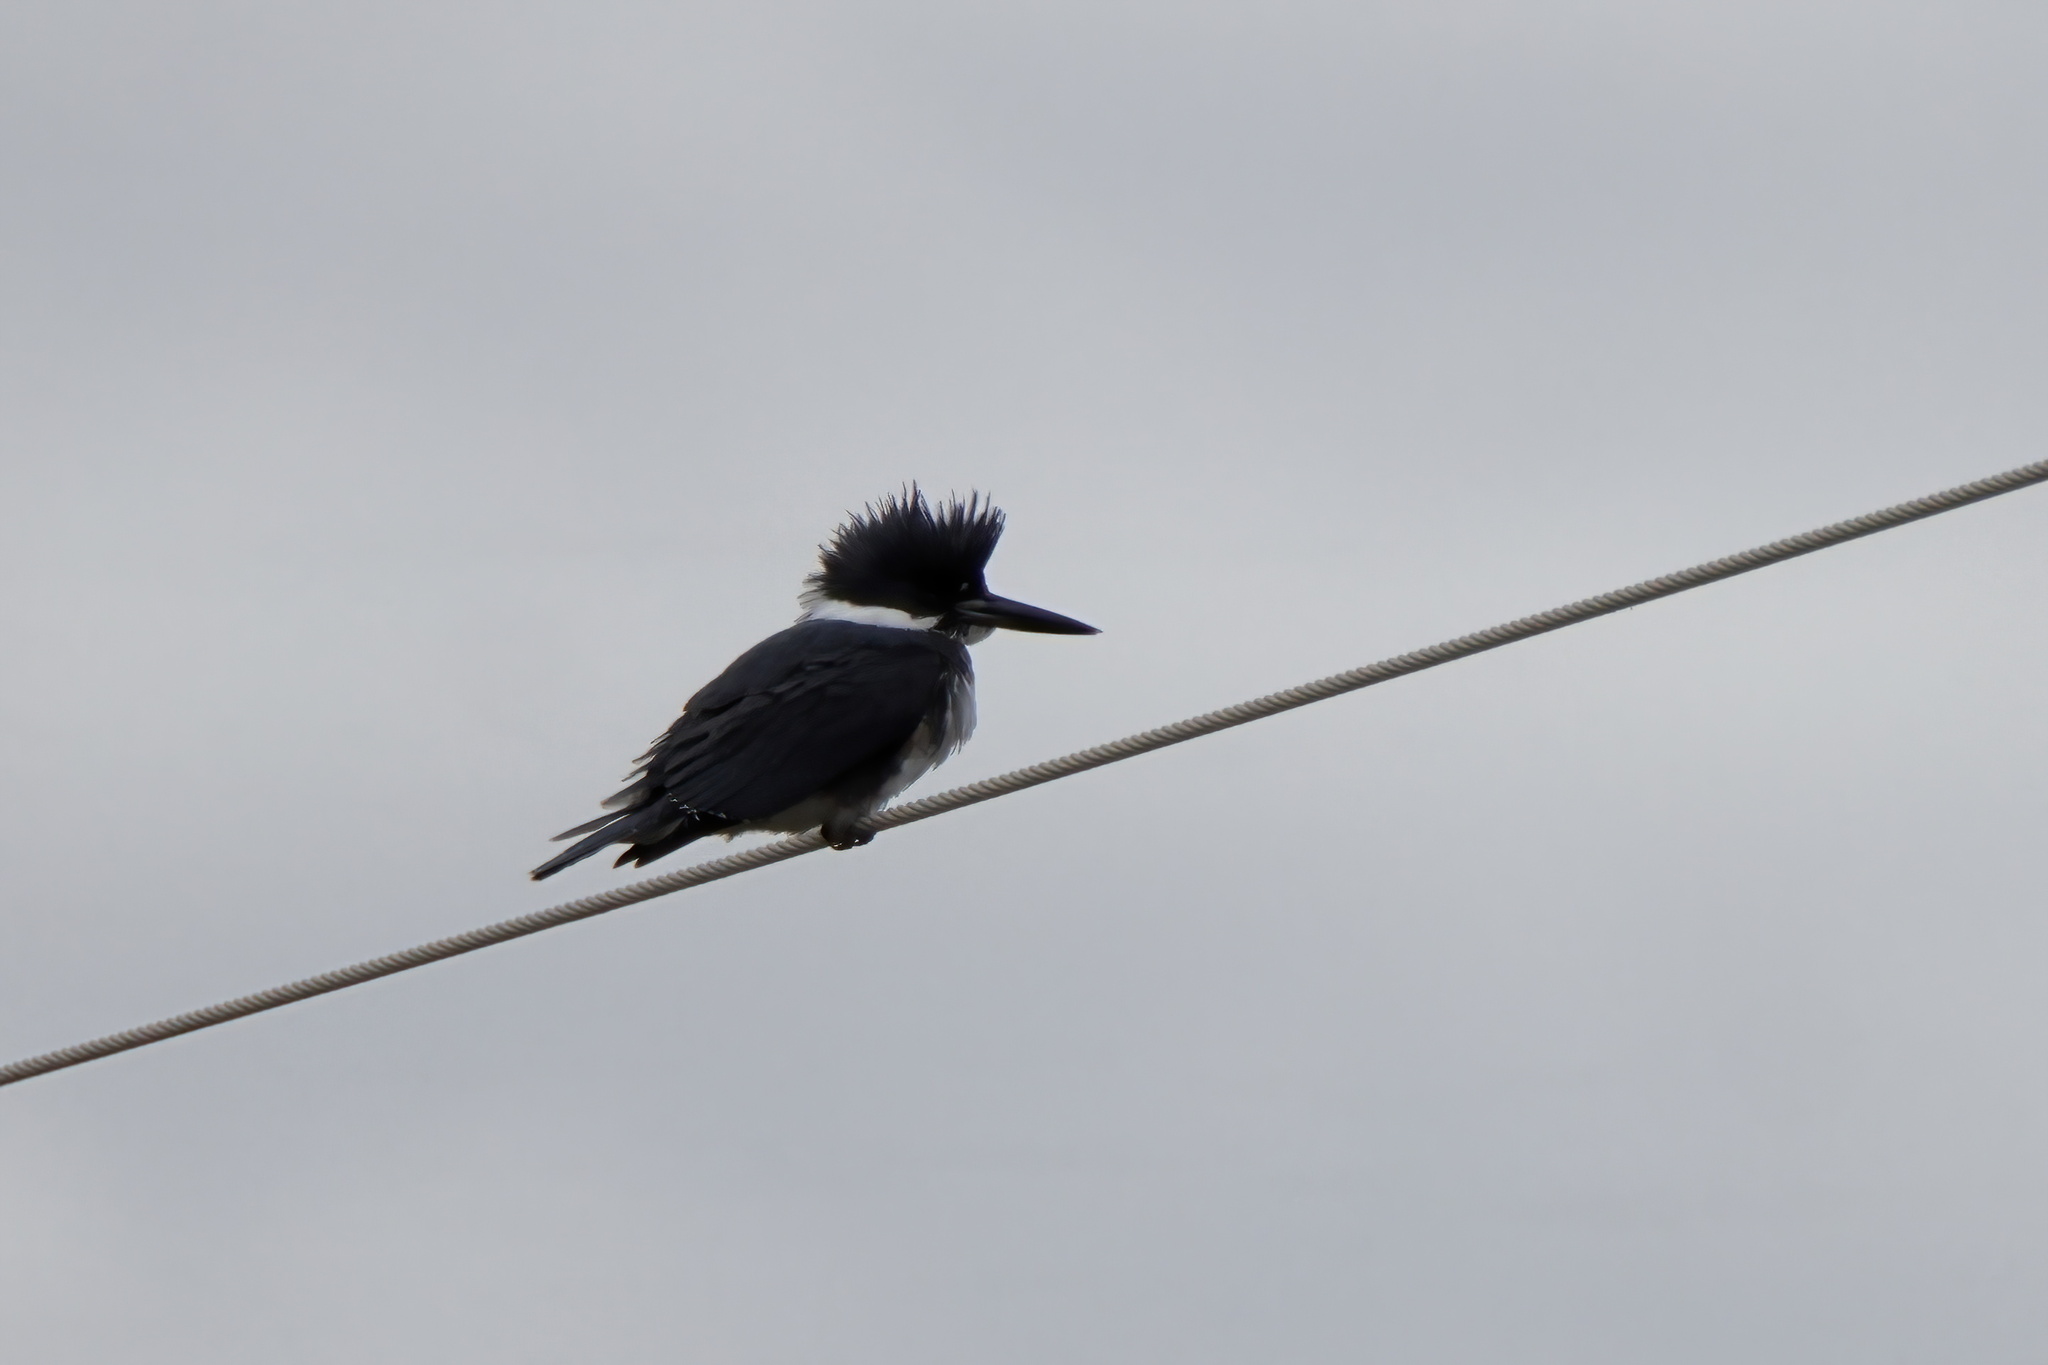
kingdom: Animalia
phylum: Chordata
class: Aves
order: Coraciiformes
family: Alcedinidae
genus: Megaceryle
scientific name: Megaceryle alcyon
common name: Belted kingfisher
